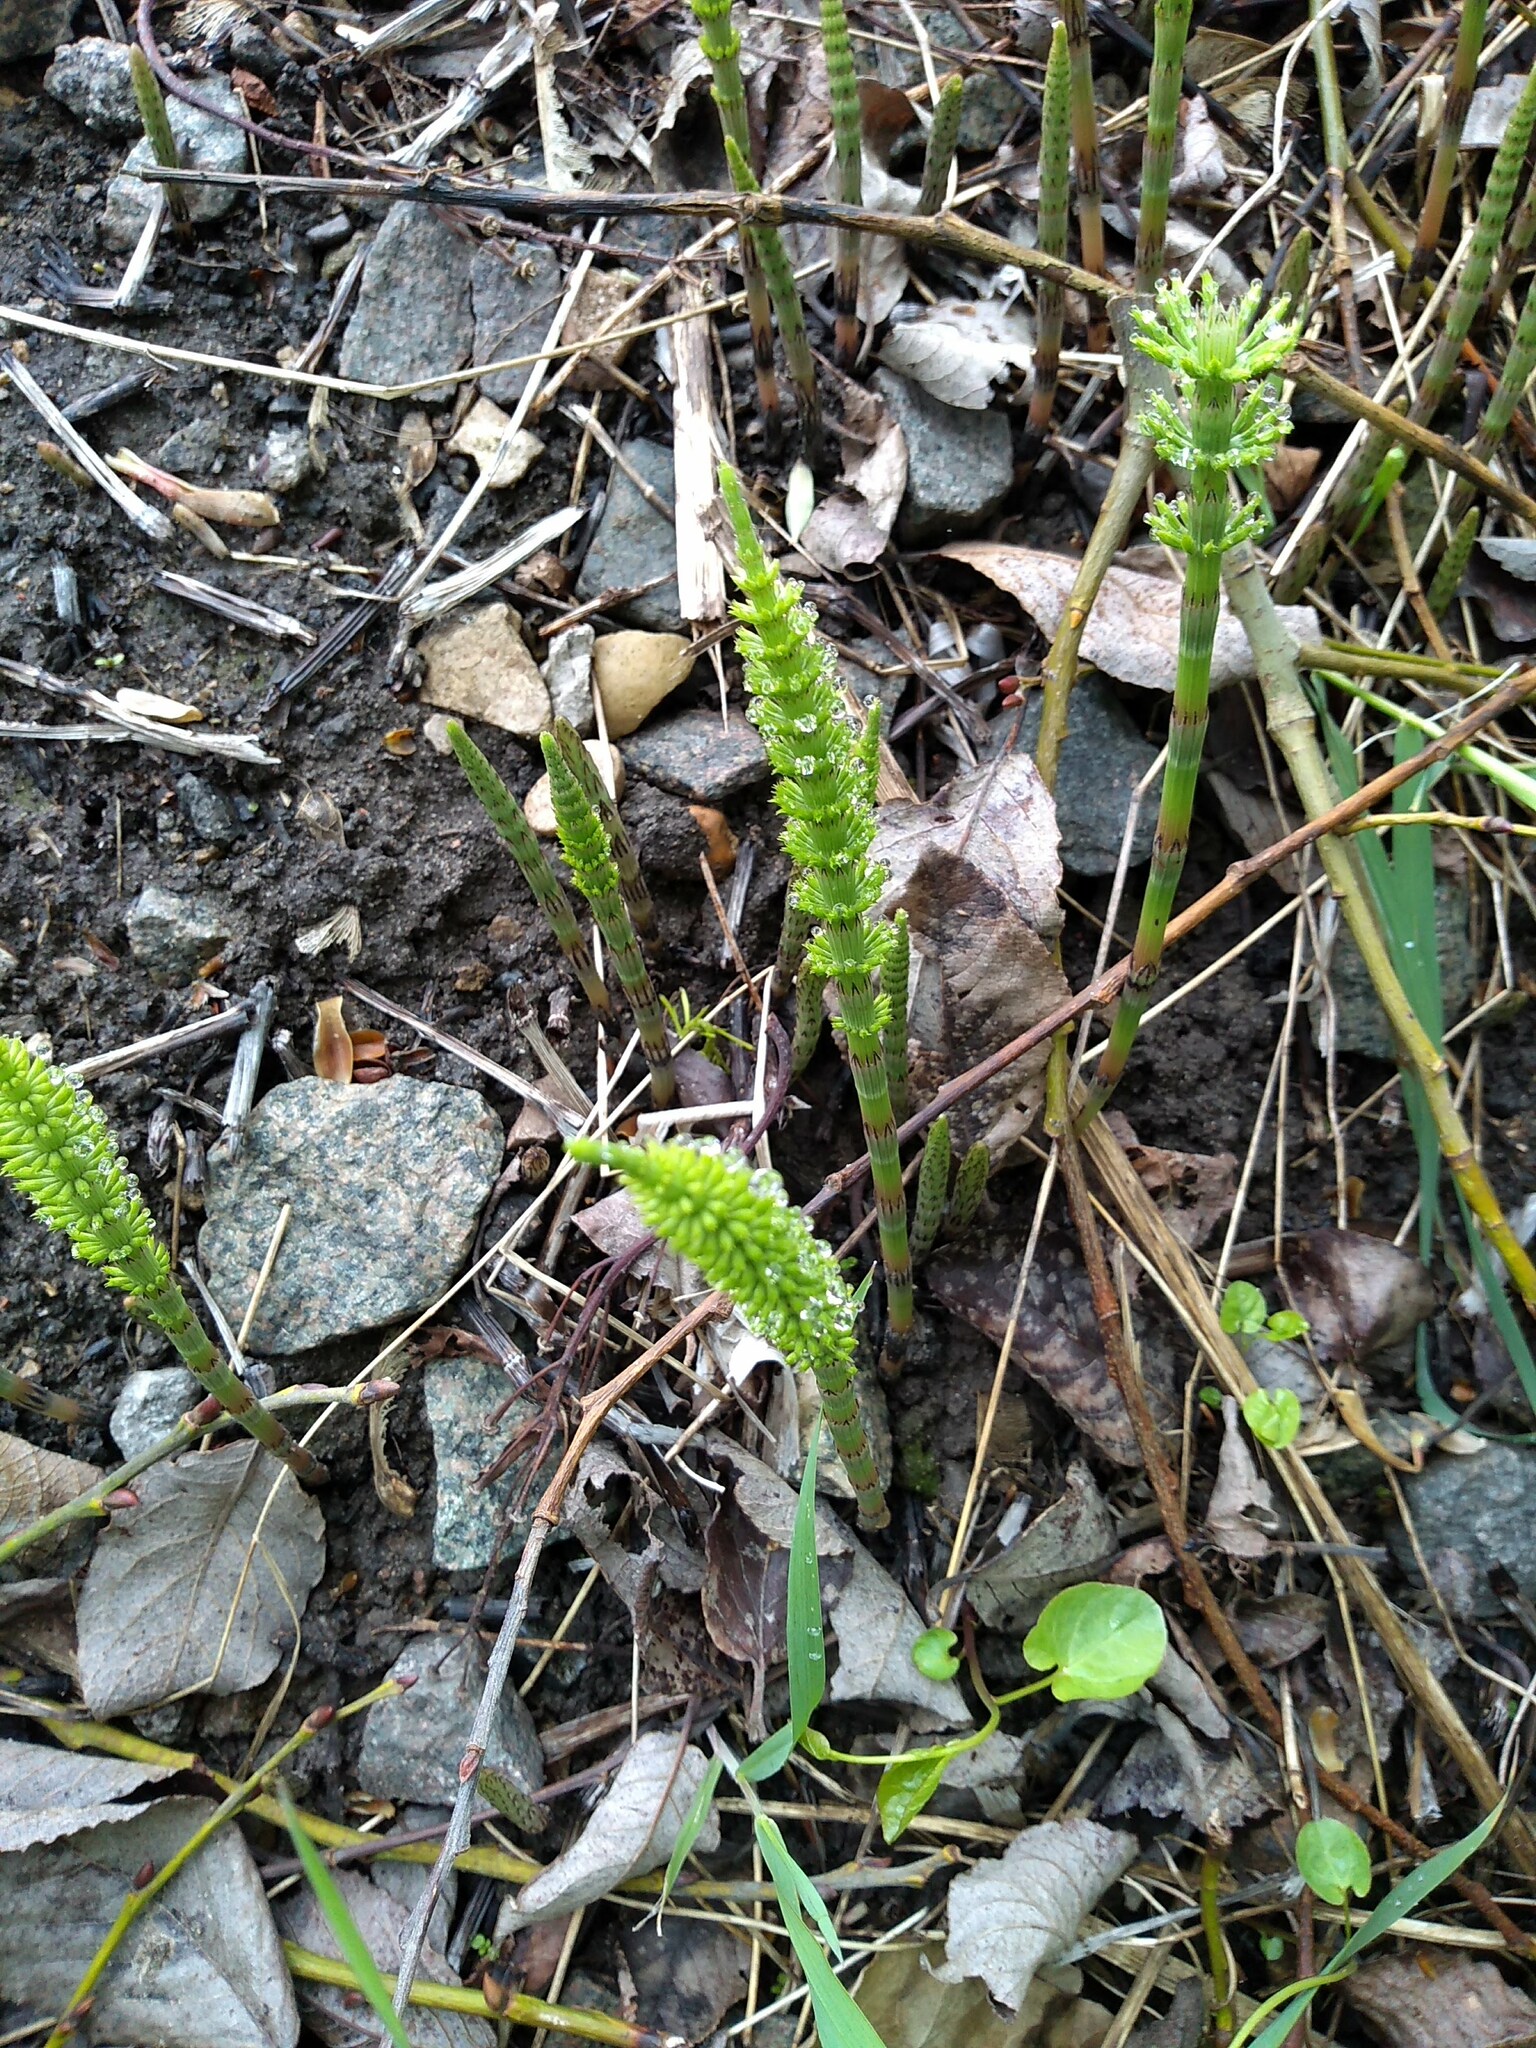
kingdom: Plantae
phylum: Tracheophyta
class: Polypodiopsida
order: Equisetales
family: Equisetaceae
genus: Equisetum
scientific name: Equisetum arvense
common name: Field horsetail
